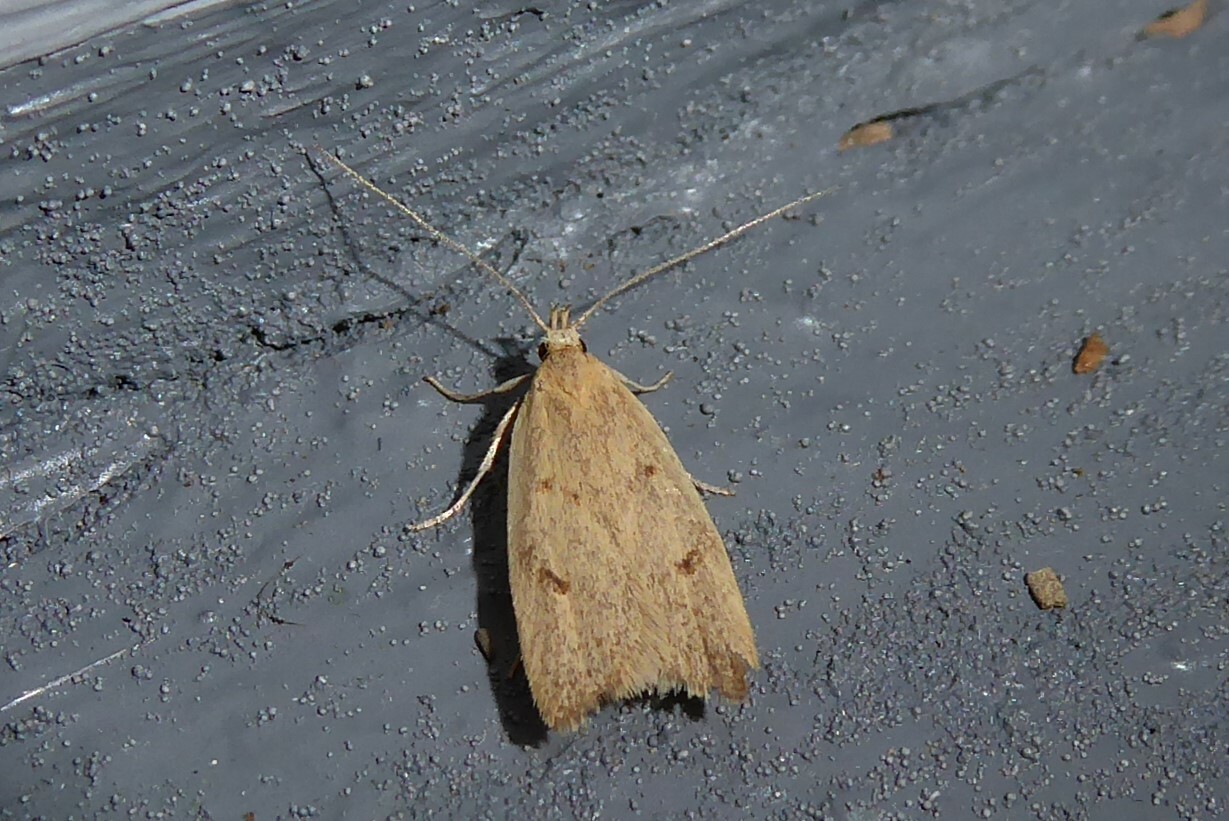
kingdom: Animalia
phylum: Arthropoda
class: Insecta
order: Lepidoptera
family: Oecophoridae
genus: Gymnobathra
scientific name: Gymnobathra sarcoxantha
